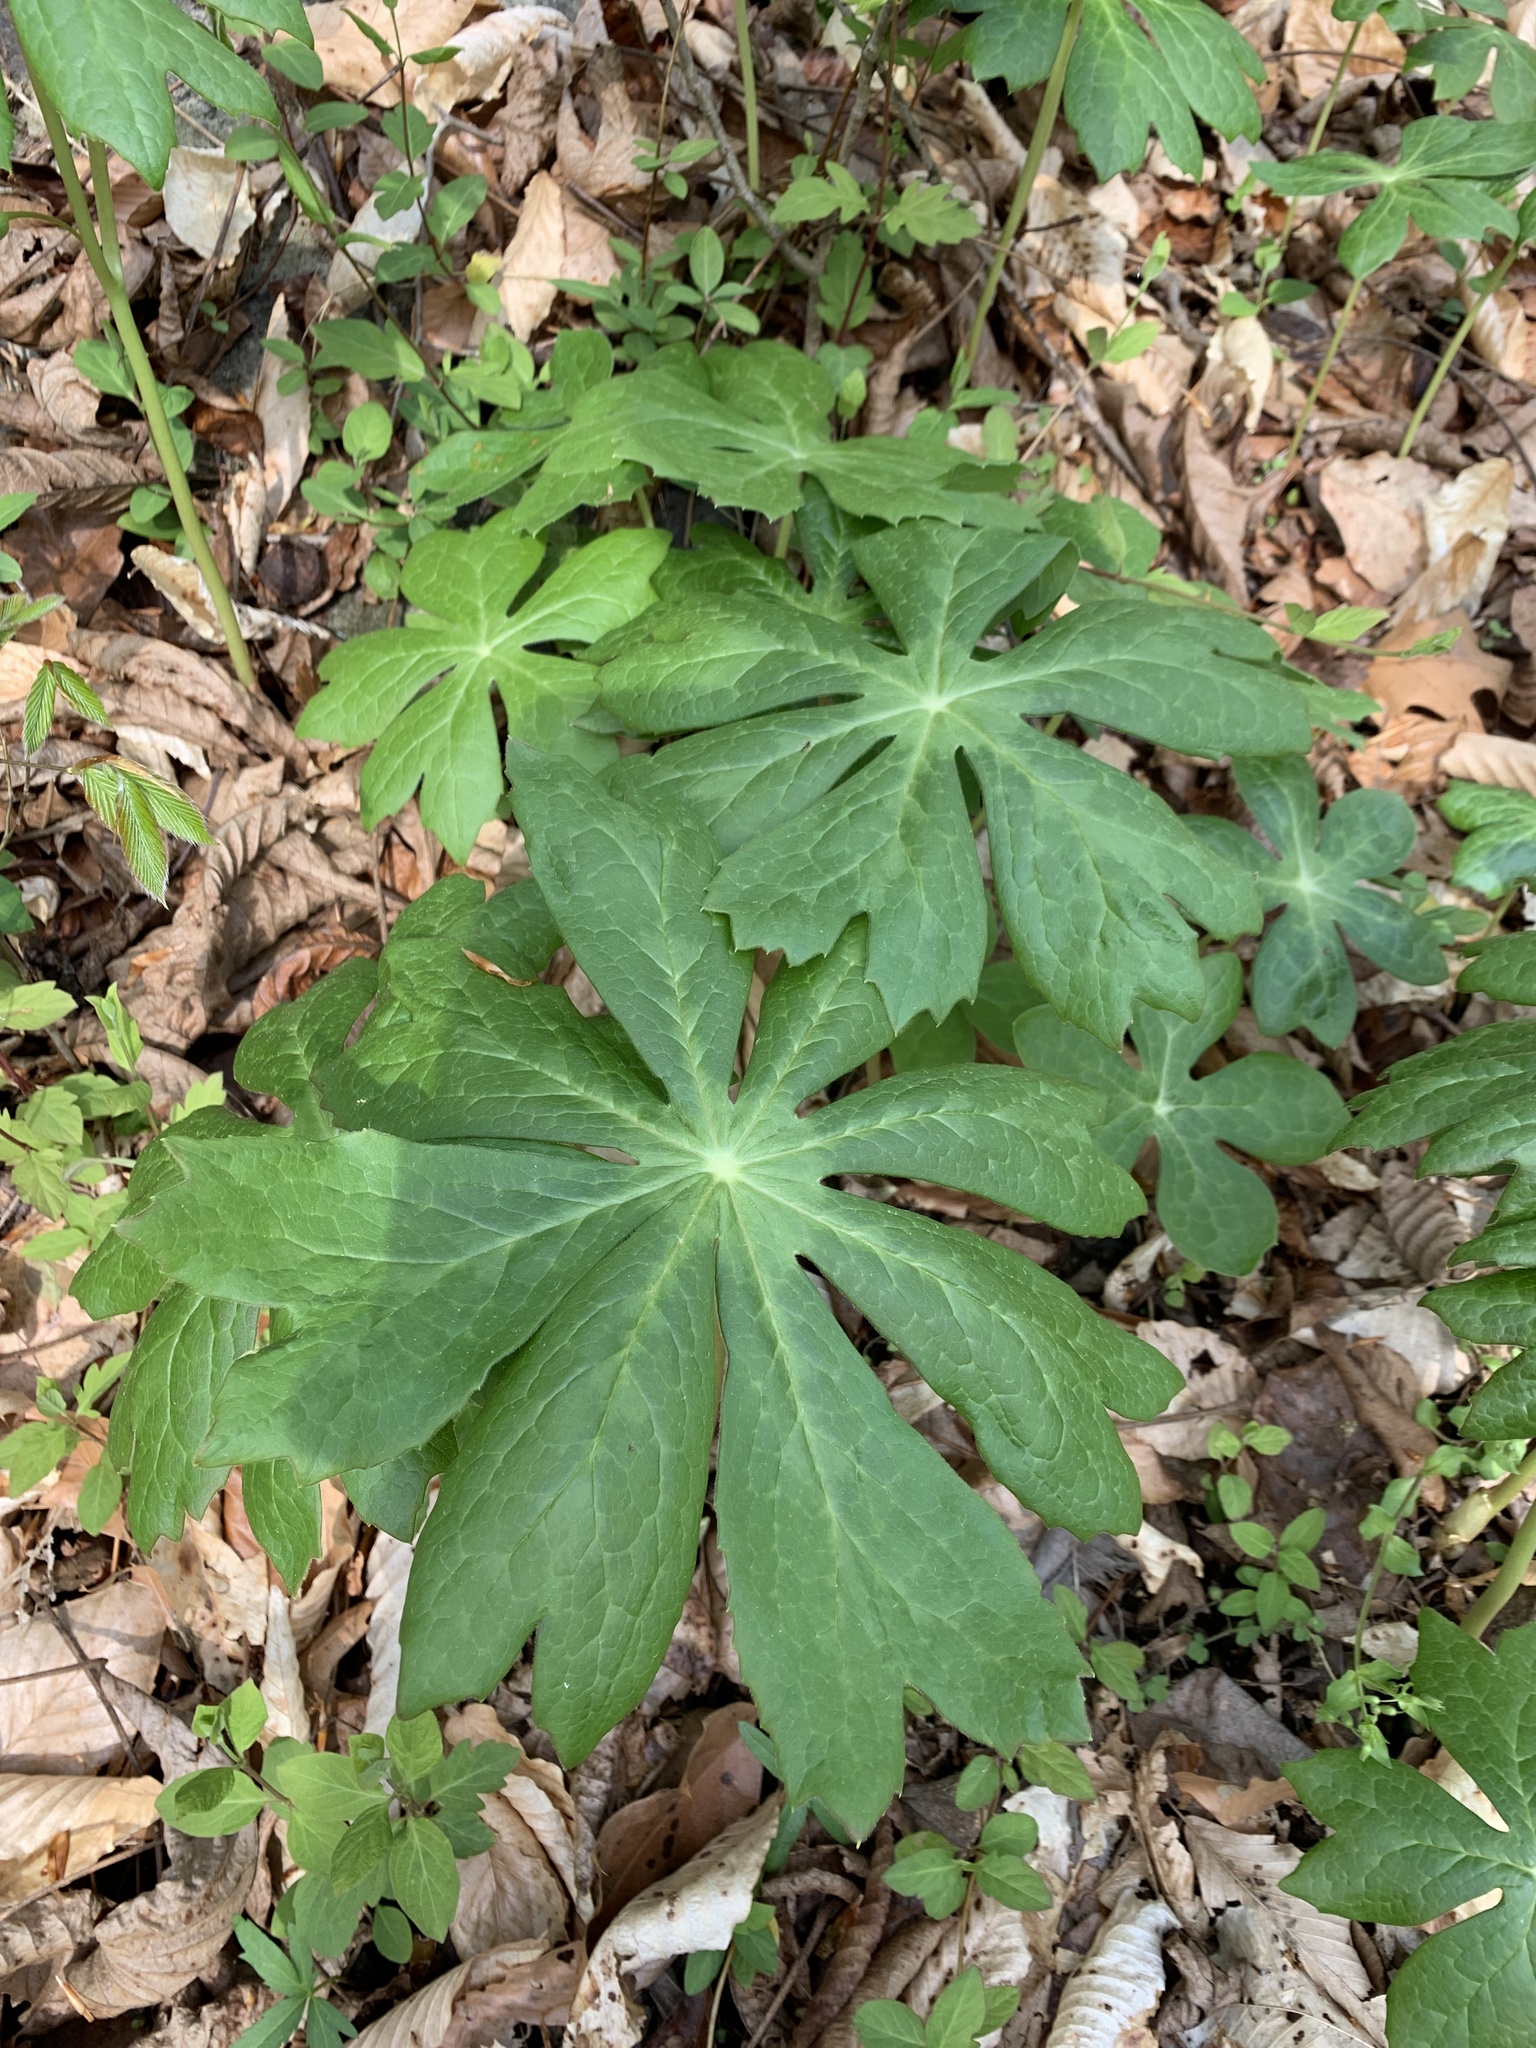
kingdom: Plantae
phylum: Tracheophyta
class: Magnoliopsida
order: Ranunculales
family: Berberidaceae
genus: Podophyllum
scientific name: Podophyllum peltatum
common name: Wild mandrake
